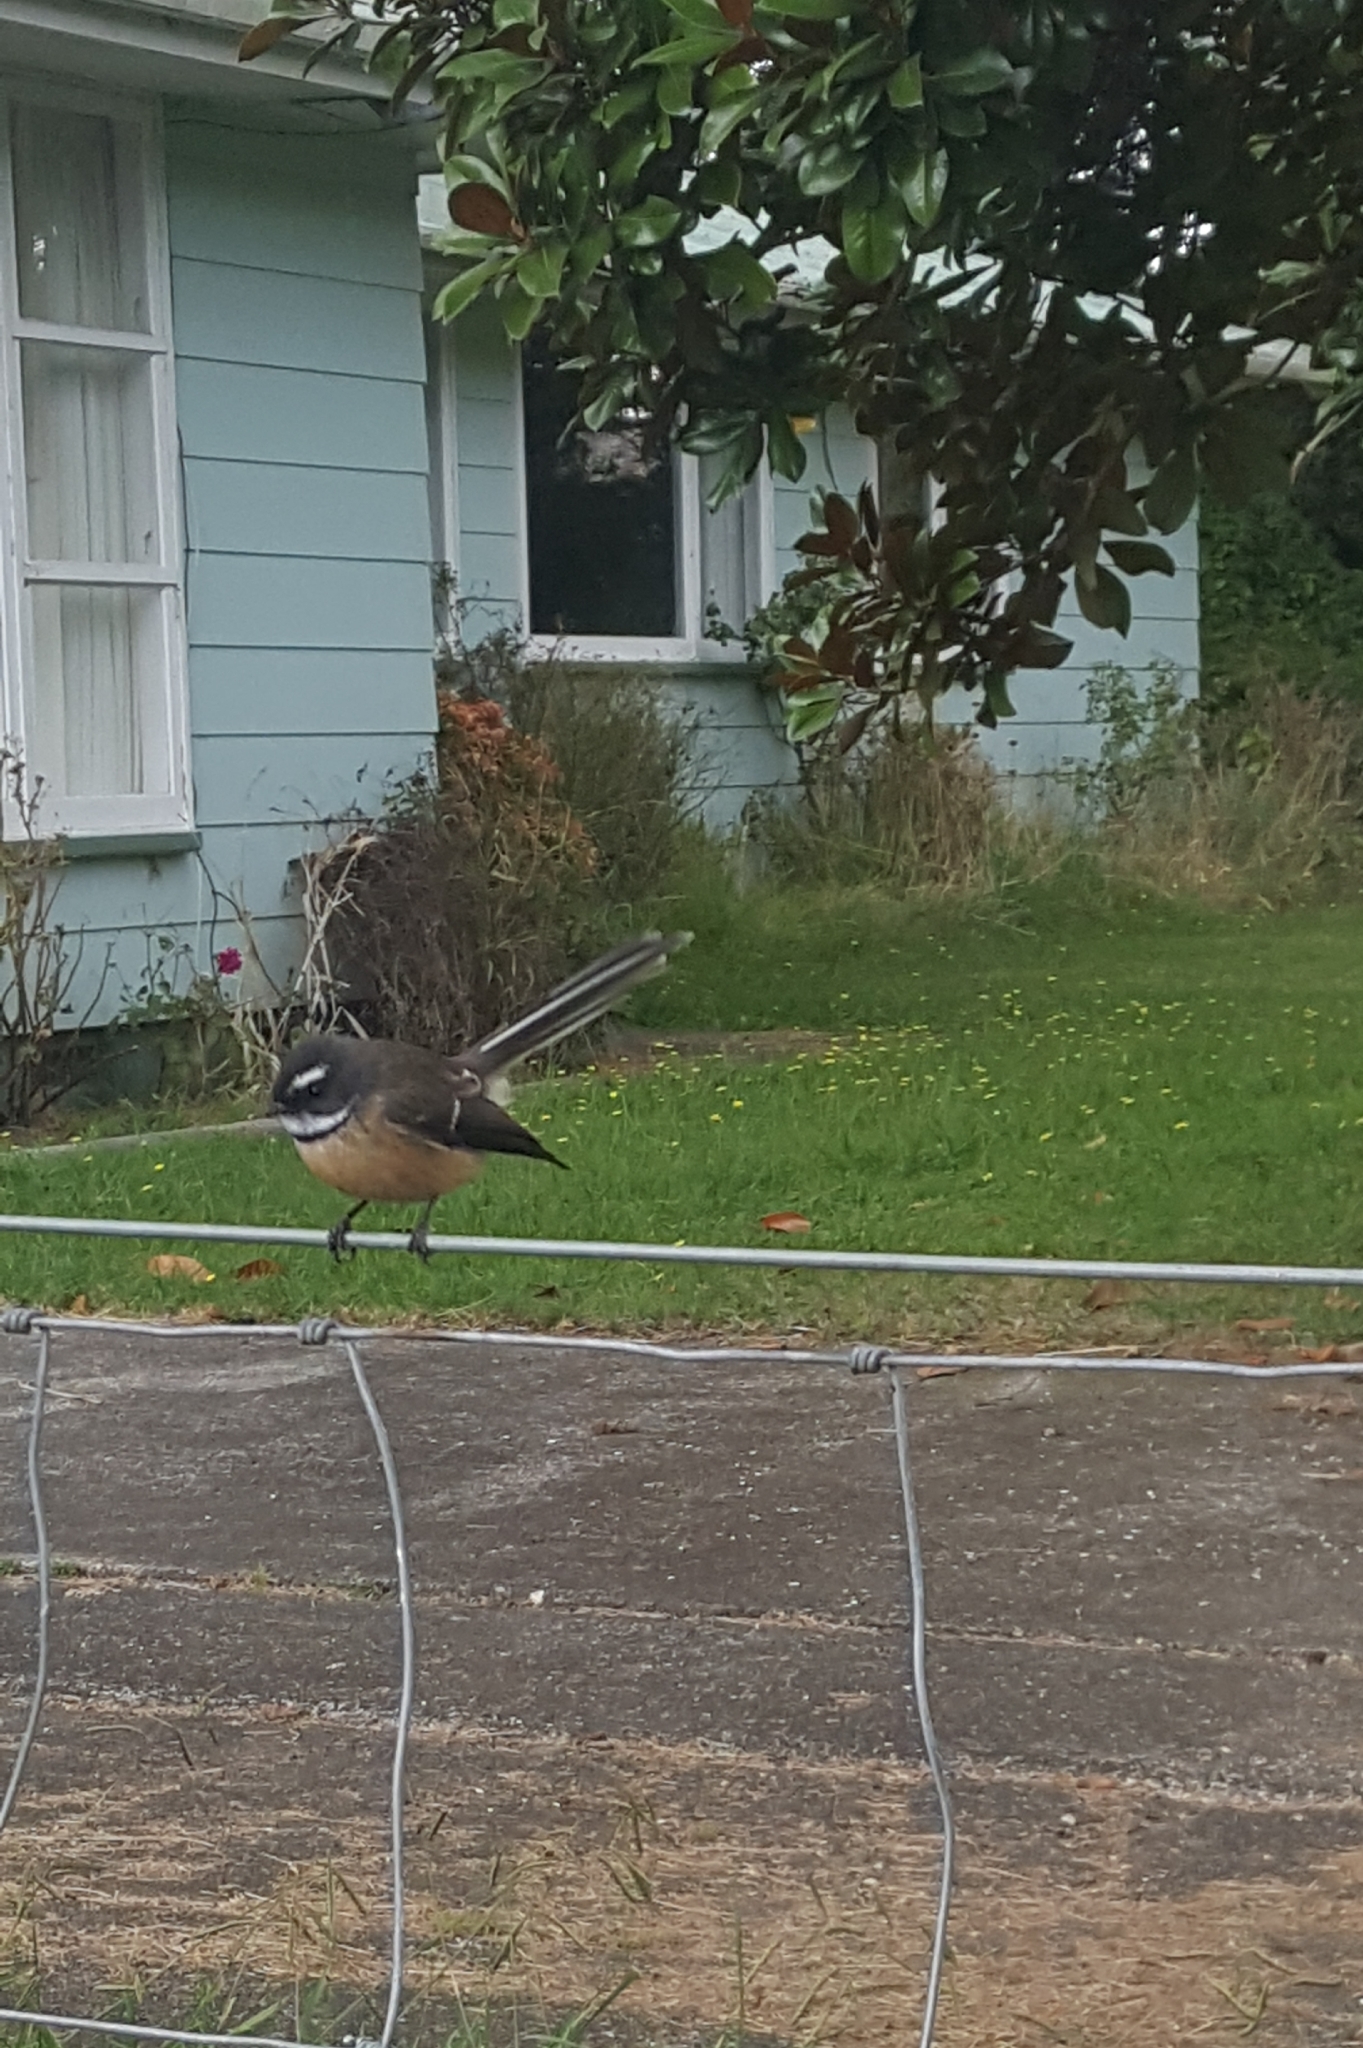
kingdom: Animalia
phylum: Chordata
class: Aves
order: Passeriformes
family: Rhipiduridae
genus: Rhipidura
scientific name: Rhipidura fuliginosa
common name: New zealand fantail
